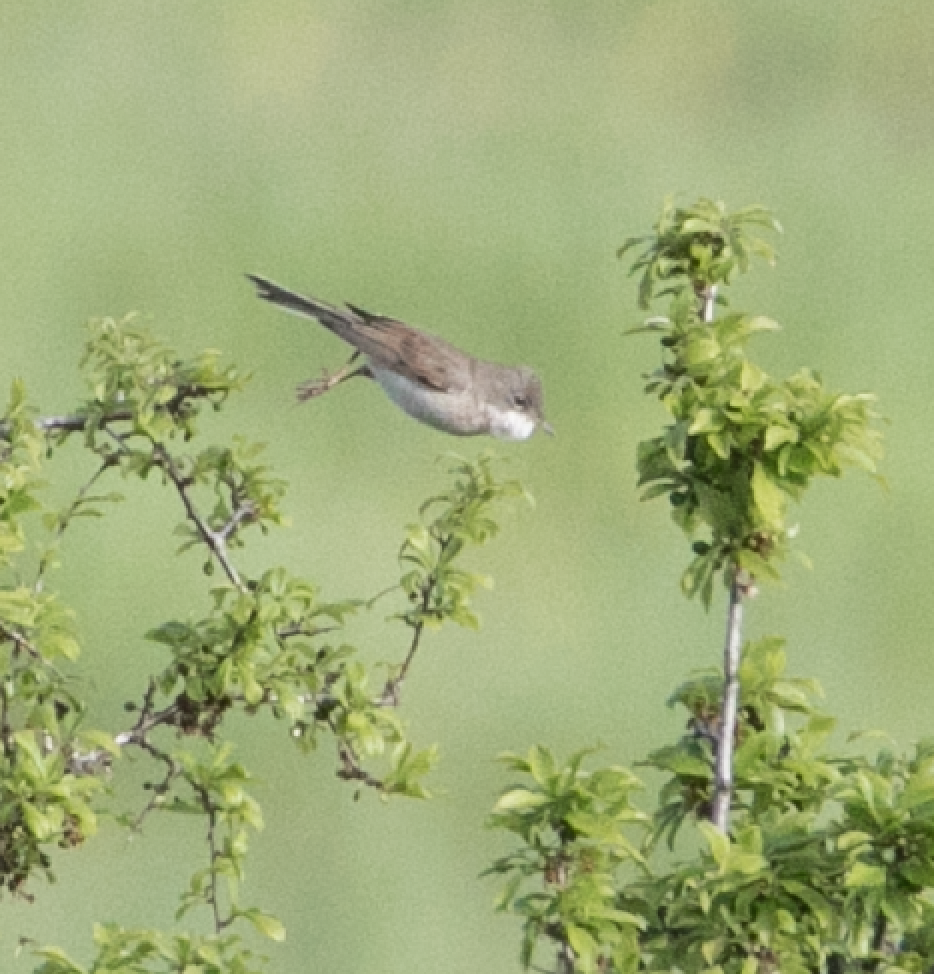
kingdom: Animalia
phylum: Chordata
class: Aves
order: Passeriformes
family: Sylviidae
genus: Sylvia
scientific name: Sylvia communis
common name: Common whitethroat
